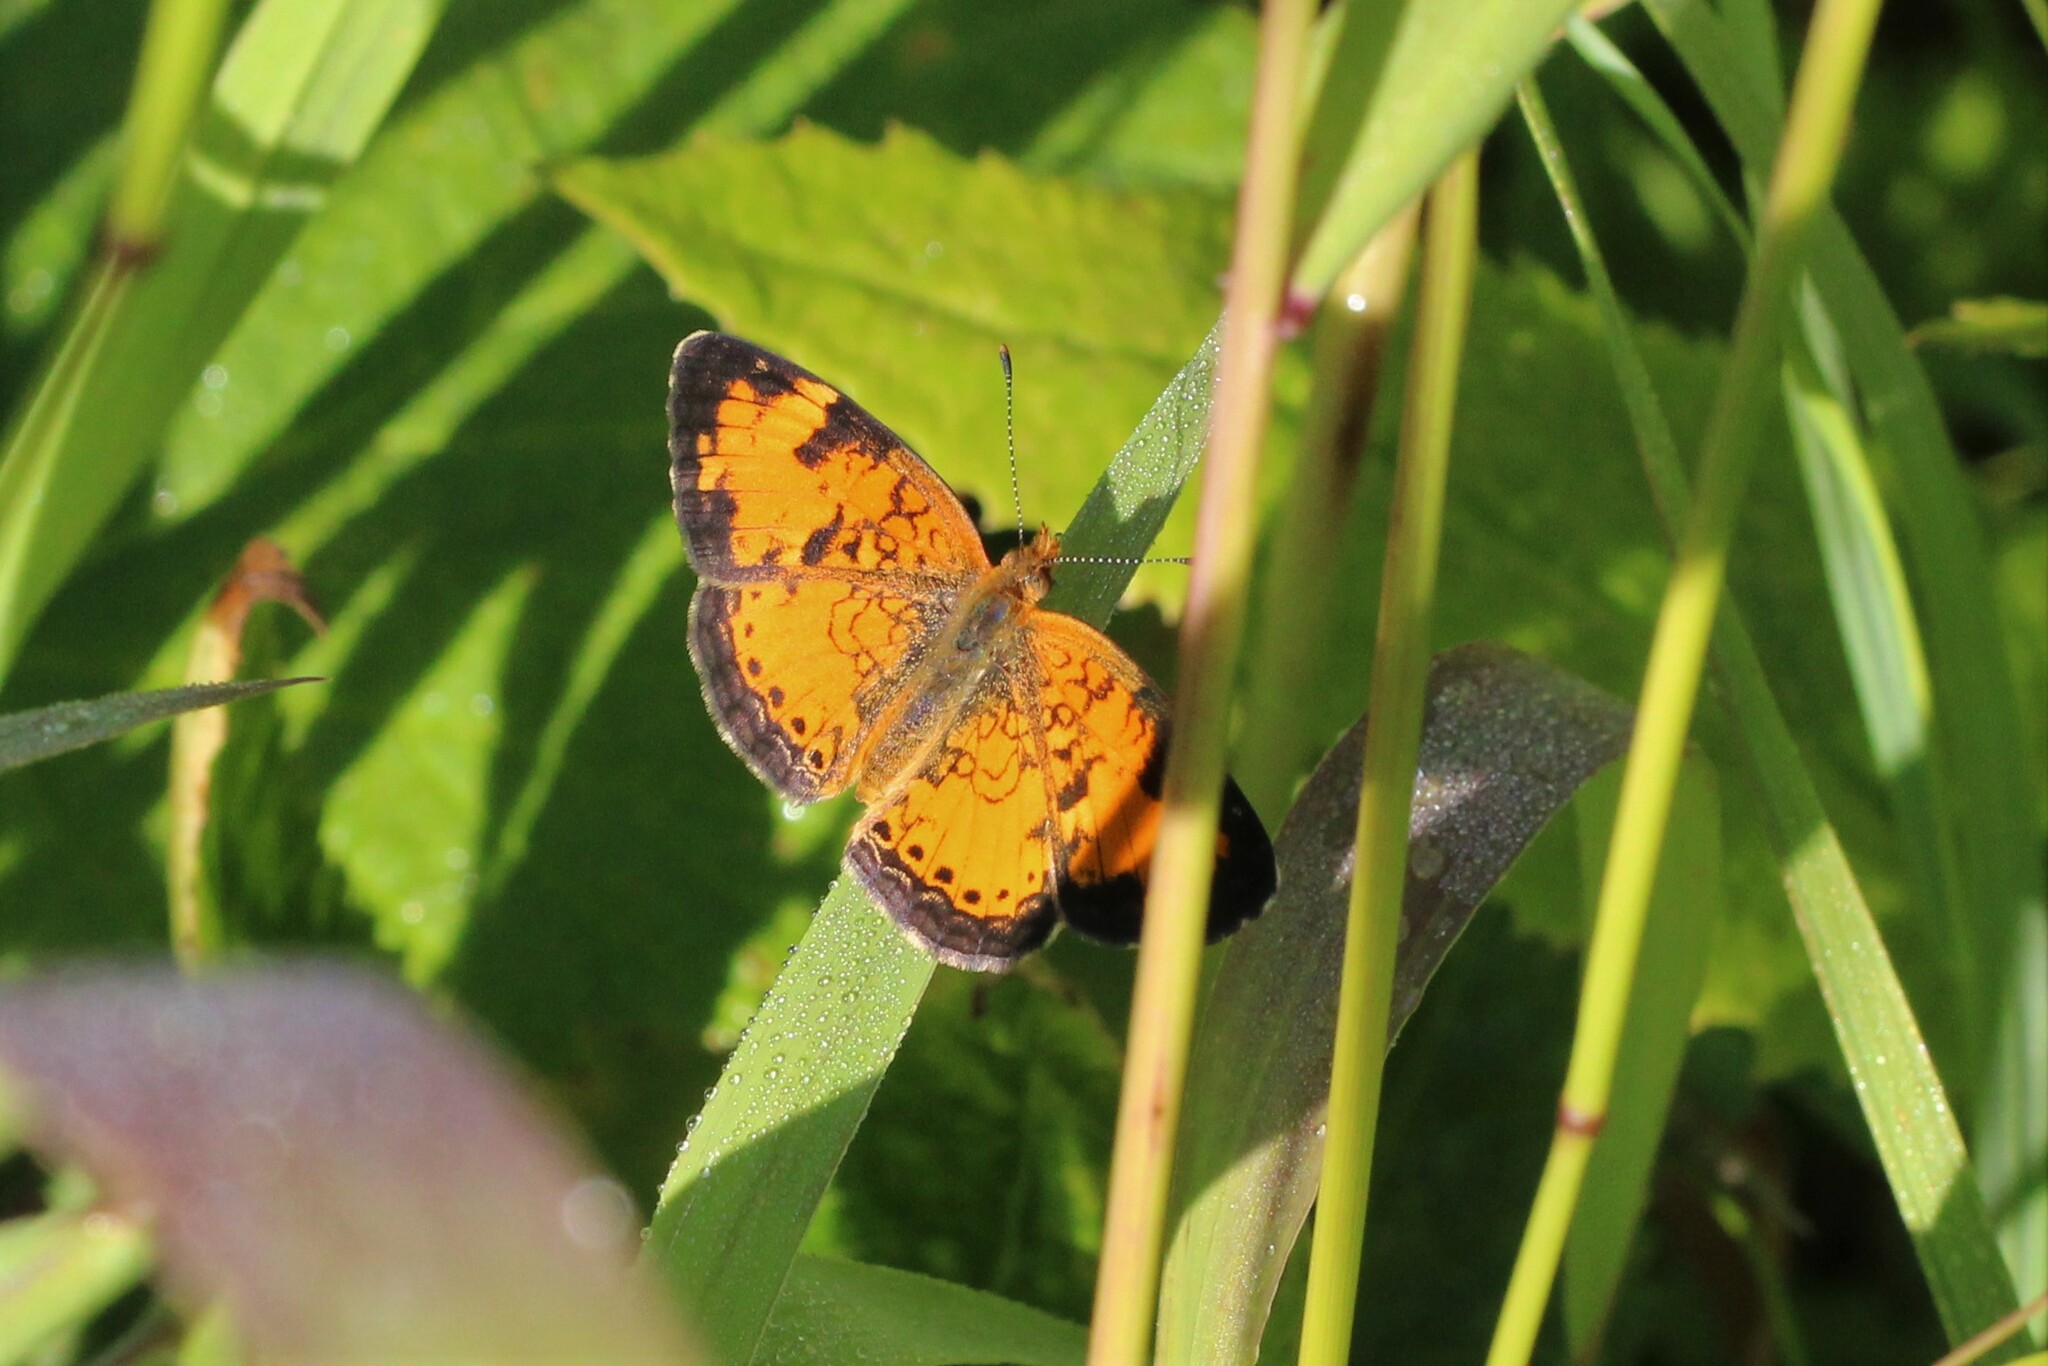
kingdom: Animalia
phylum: Arthropoda
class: Insecta
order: Lepidoptera
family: Nymphalidae
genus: Phyciodes
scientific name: Phyciodes tharos
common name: Pearl crescent
